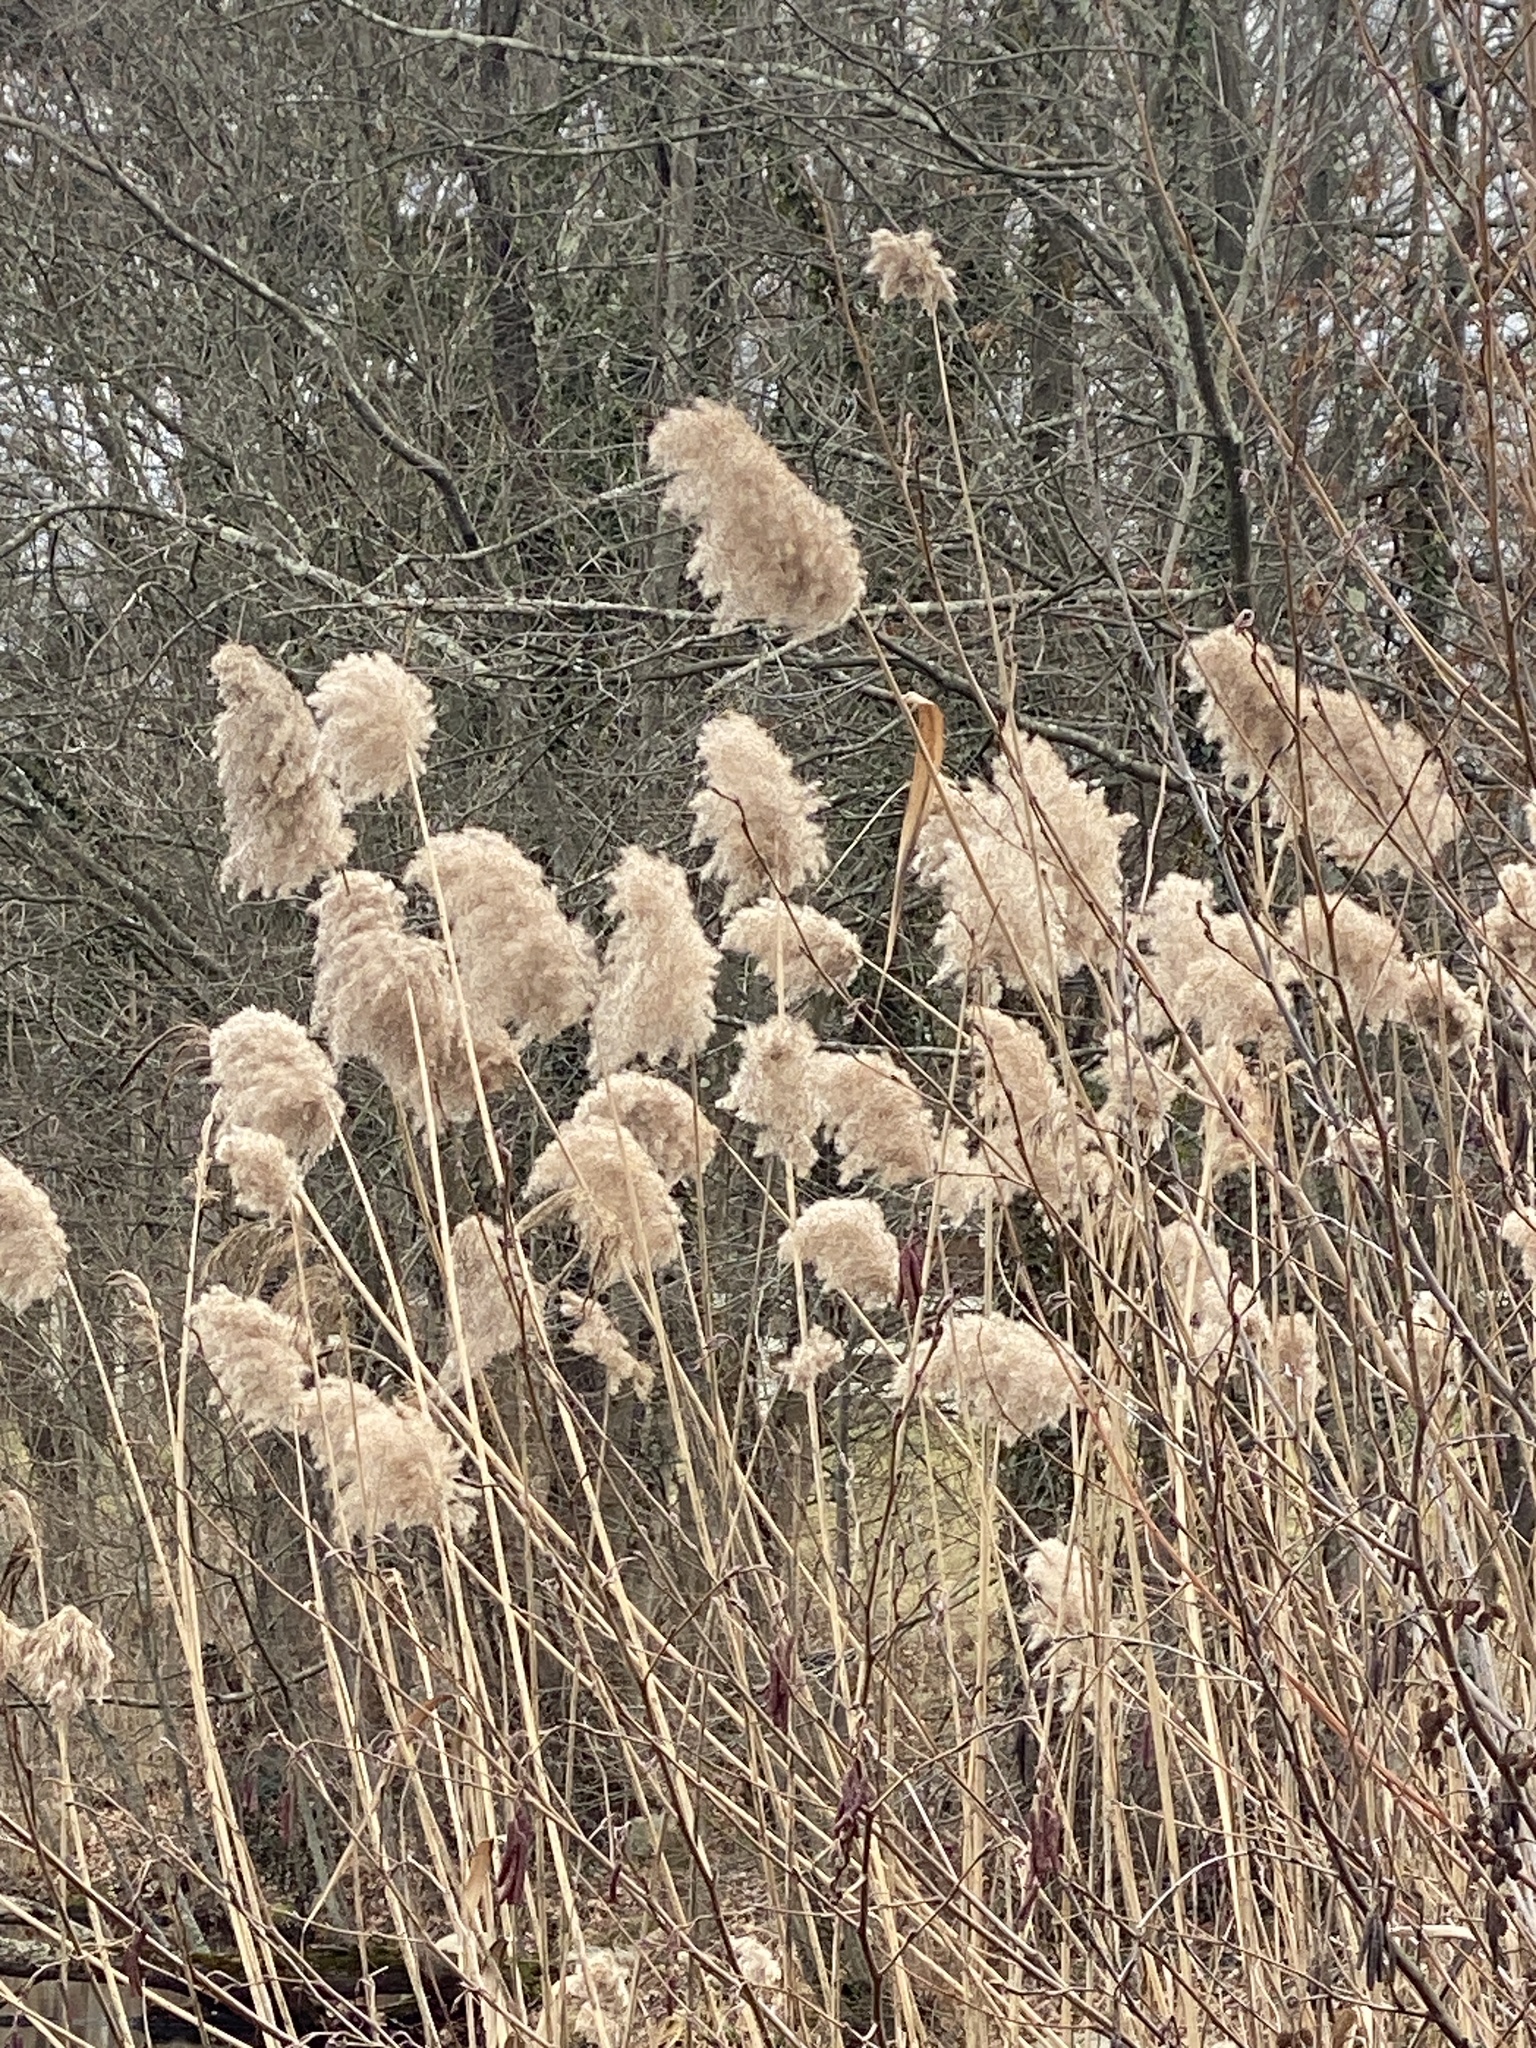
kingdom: Plantae
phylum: Tracheophyta
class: Liliopsida
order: Poales
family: Poaceae
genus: Phragmites
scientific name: Phragmites australis
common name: Common reed
